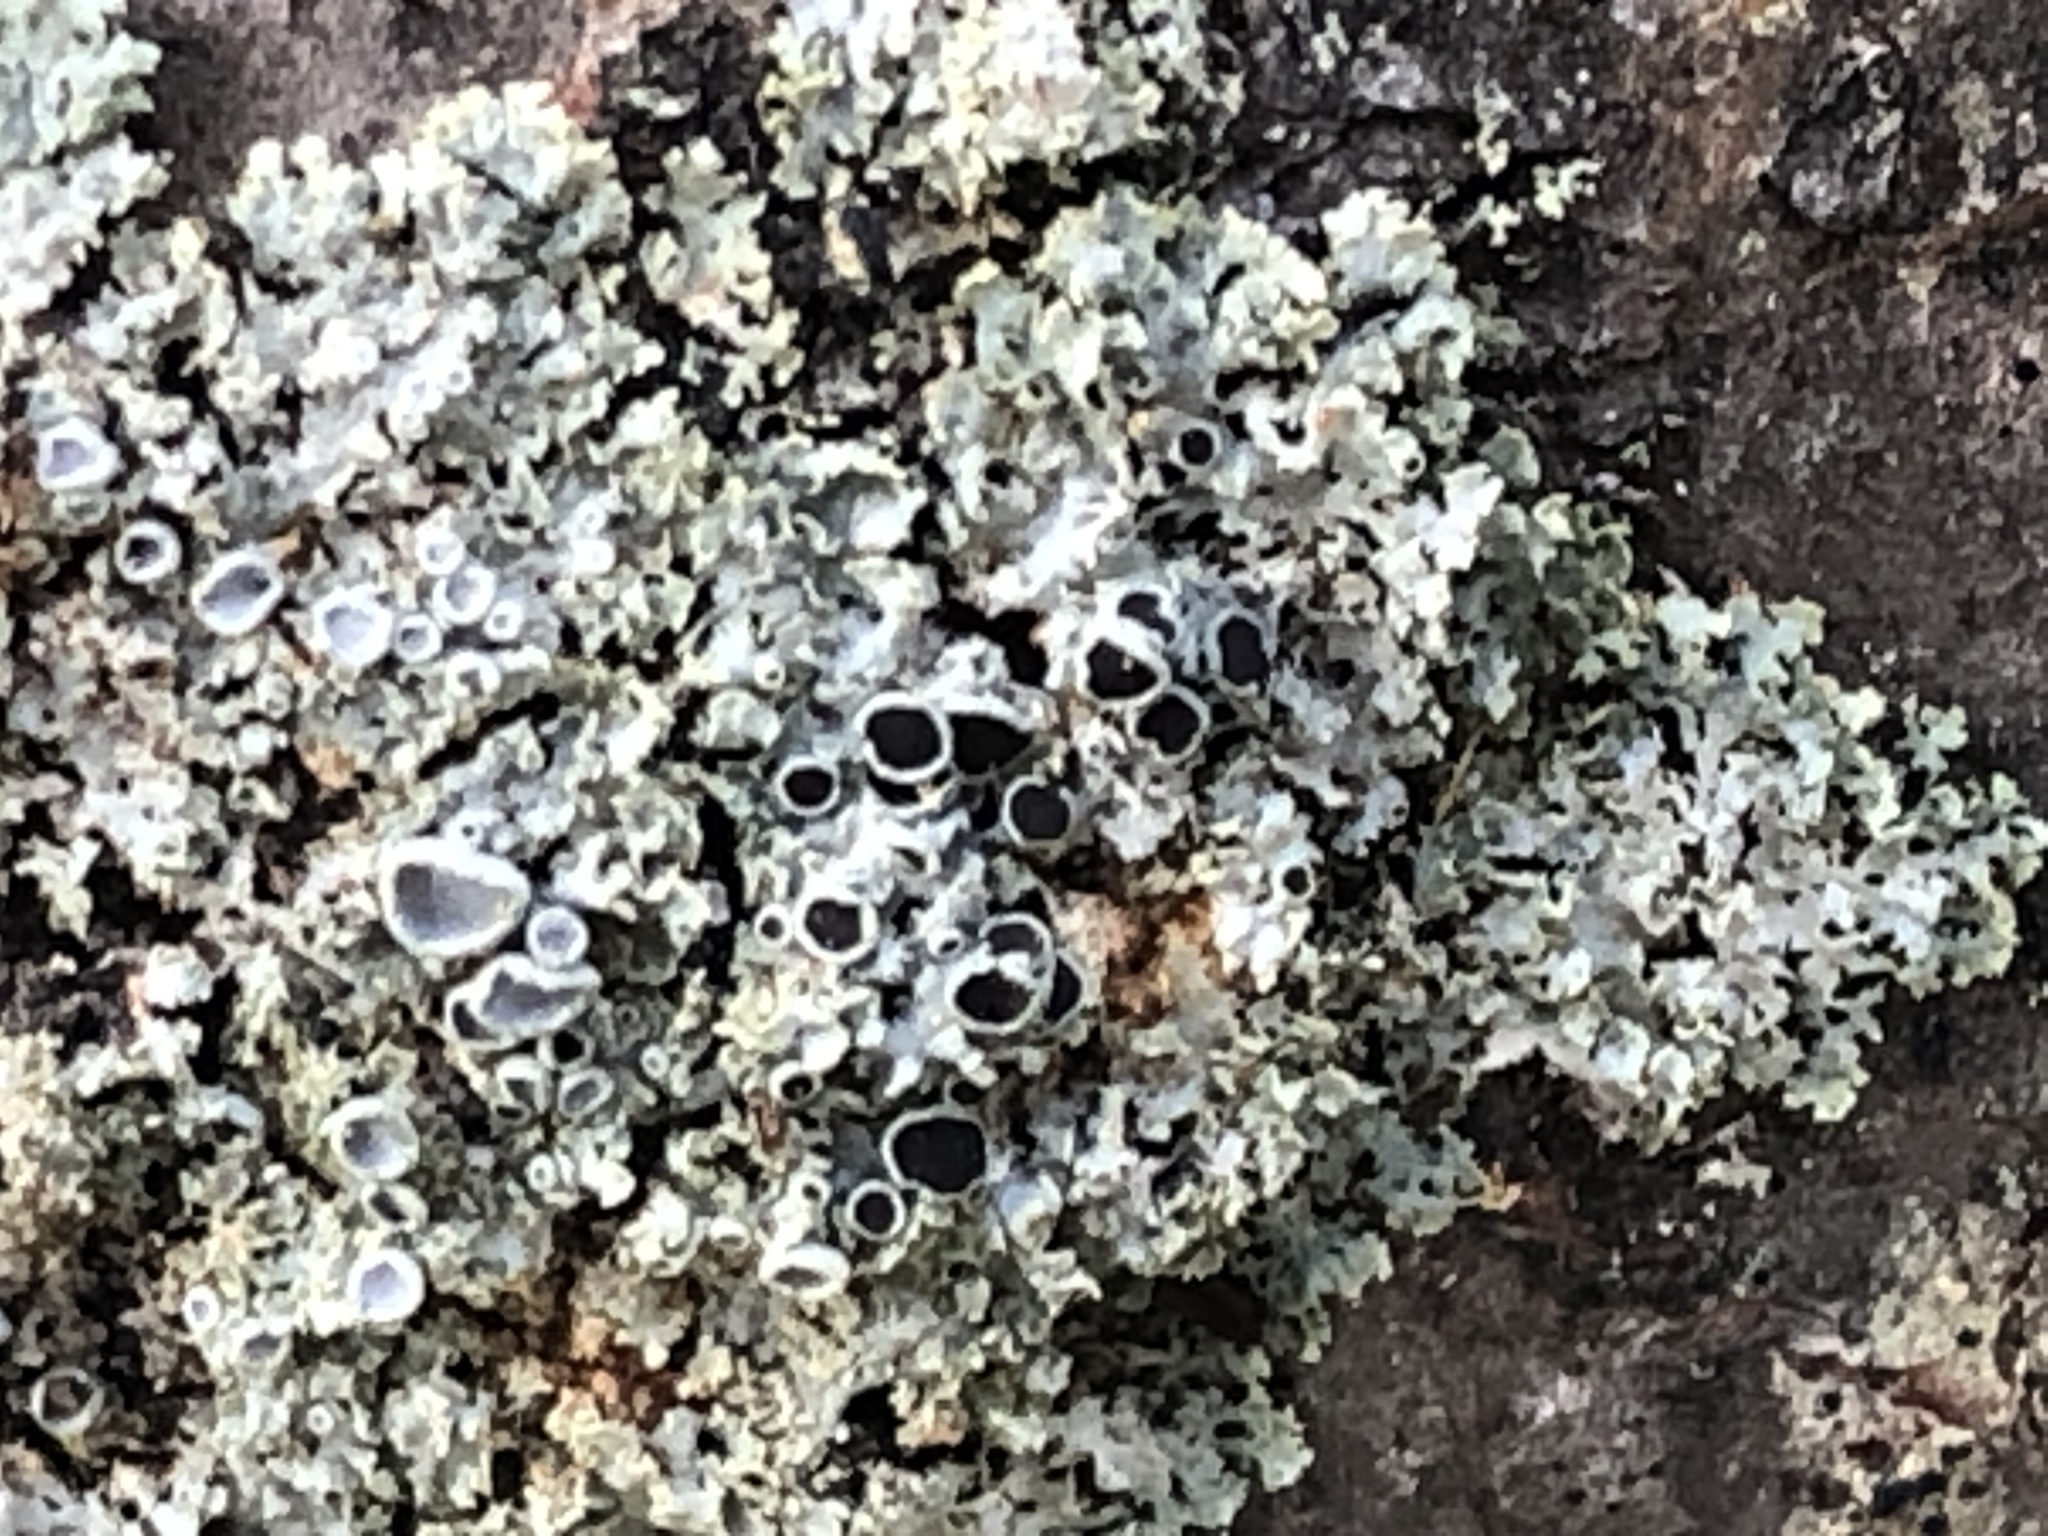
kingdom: Fungi
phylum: Ascomycota
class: Lecanoromycetes
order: Caliciales
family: Physciaceae
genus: Physcia
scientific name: Physcia millegrana
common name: Rosette lichen
